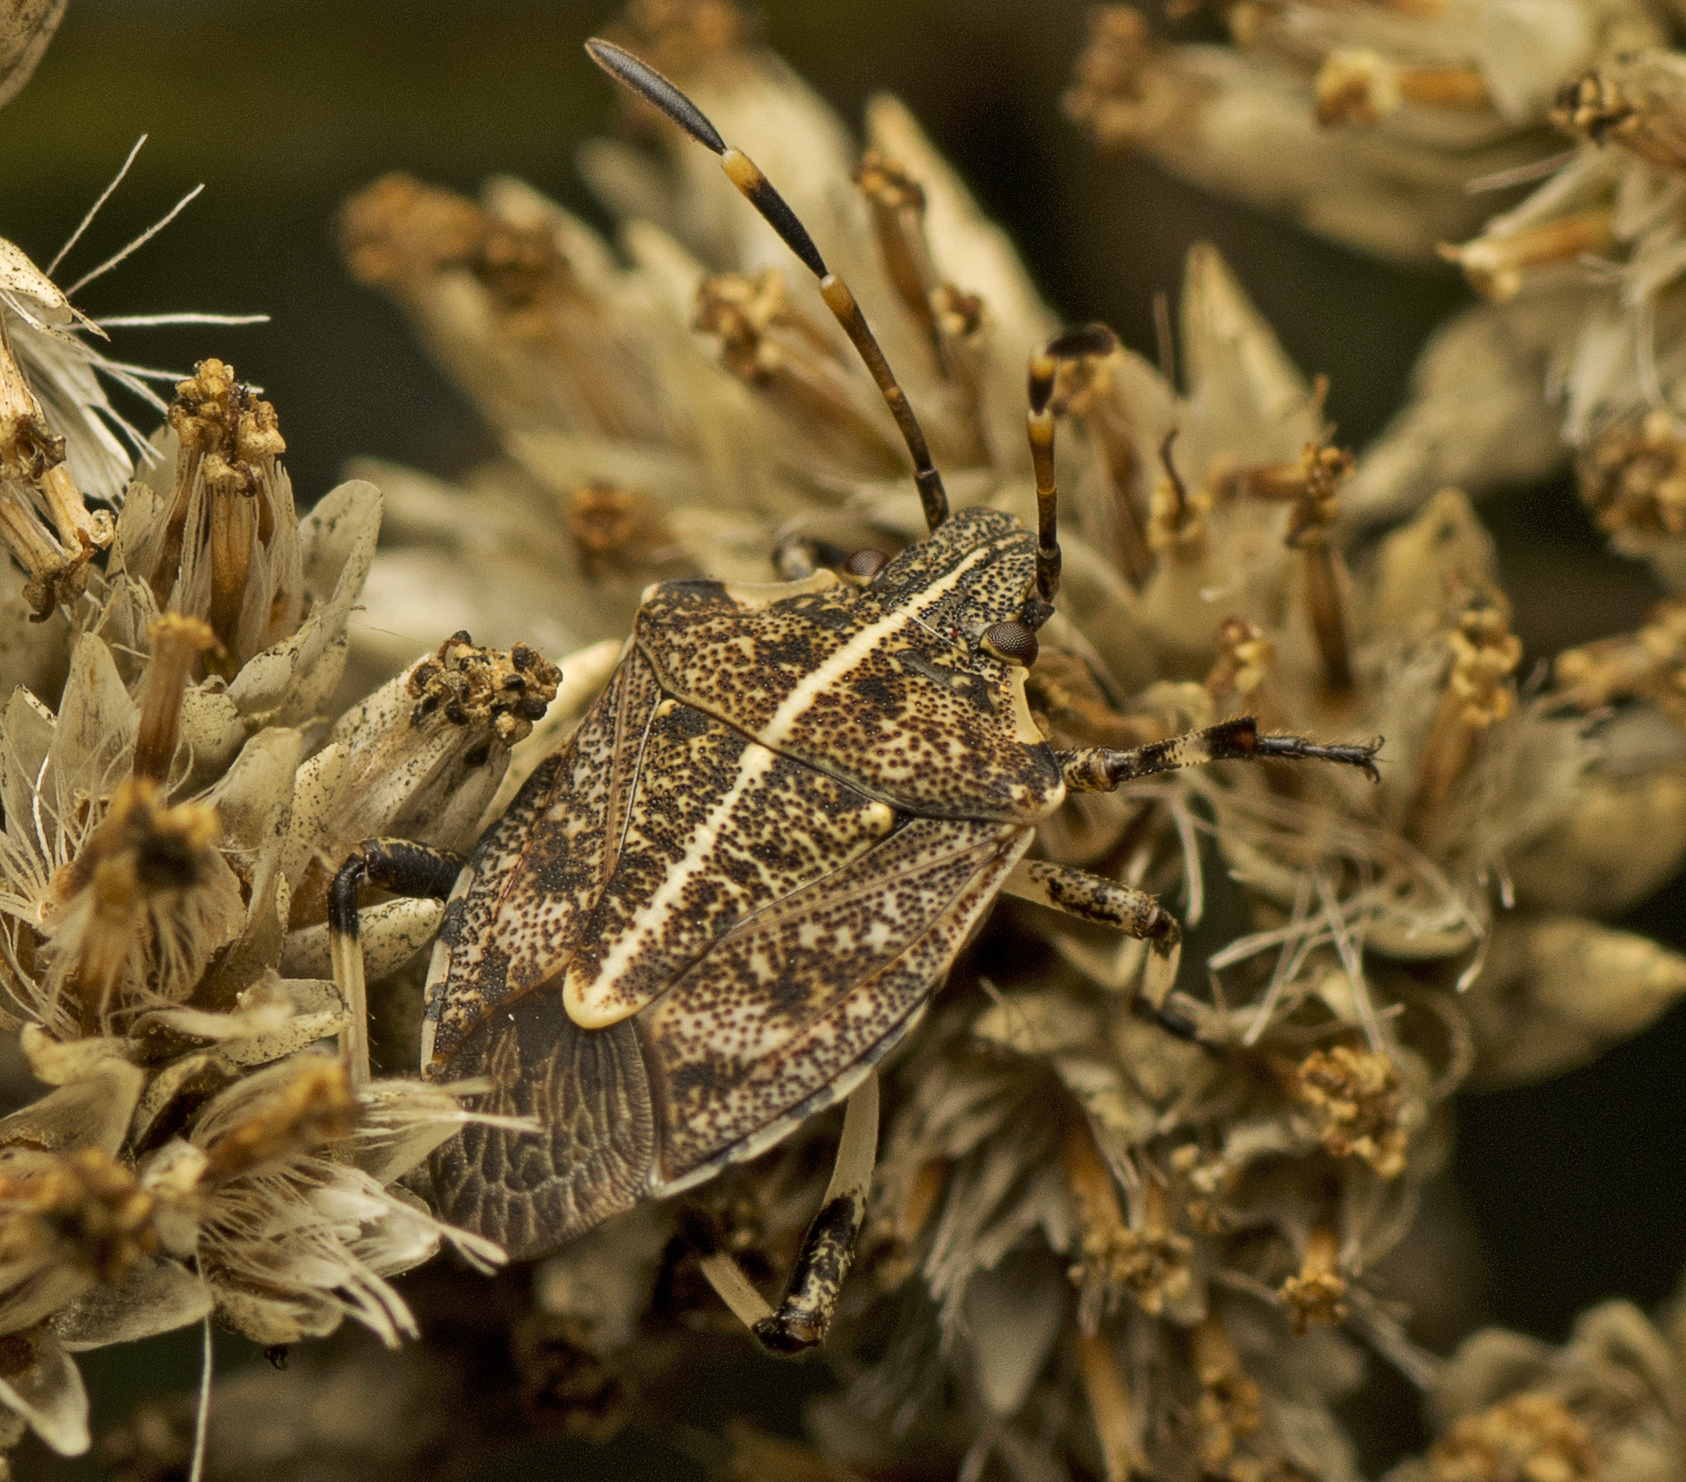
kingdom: Animalia
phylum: Arthropoda
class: Insecta
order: Hemiptera
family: Pentatomidae
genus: Oncocoris
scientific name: Oncocoris
